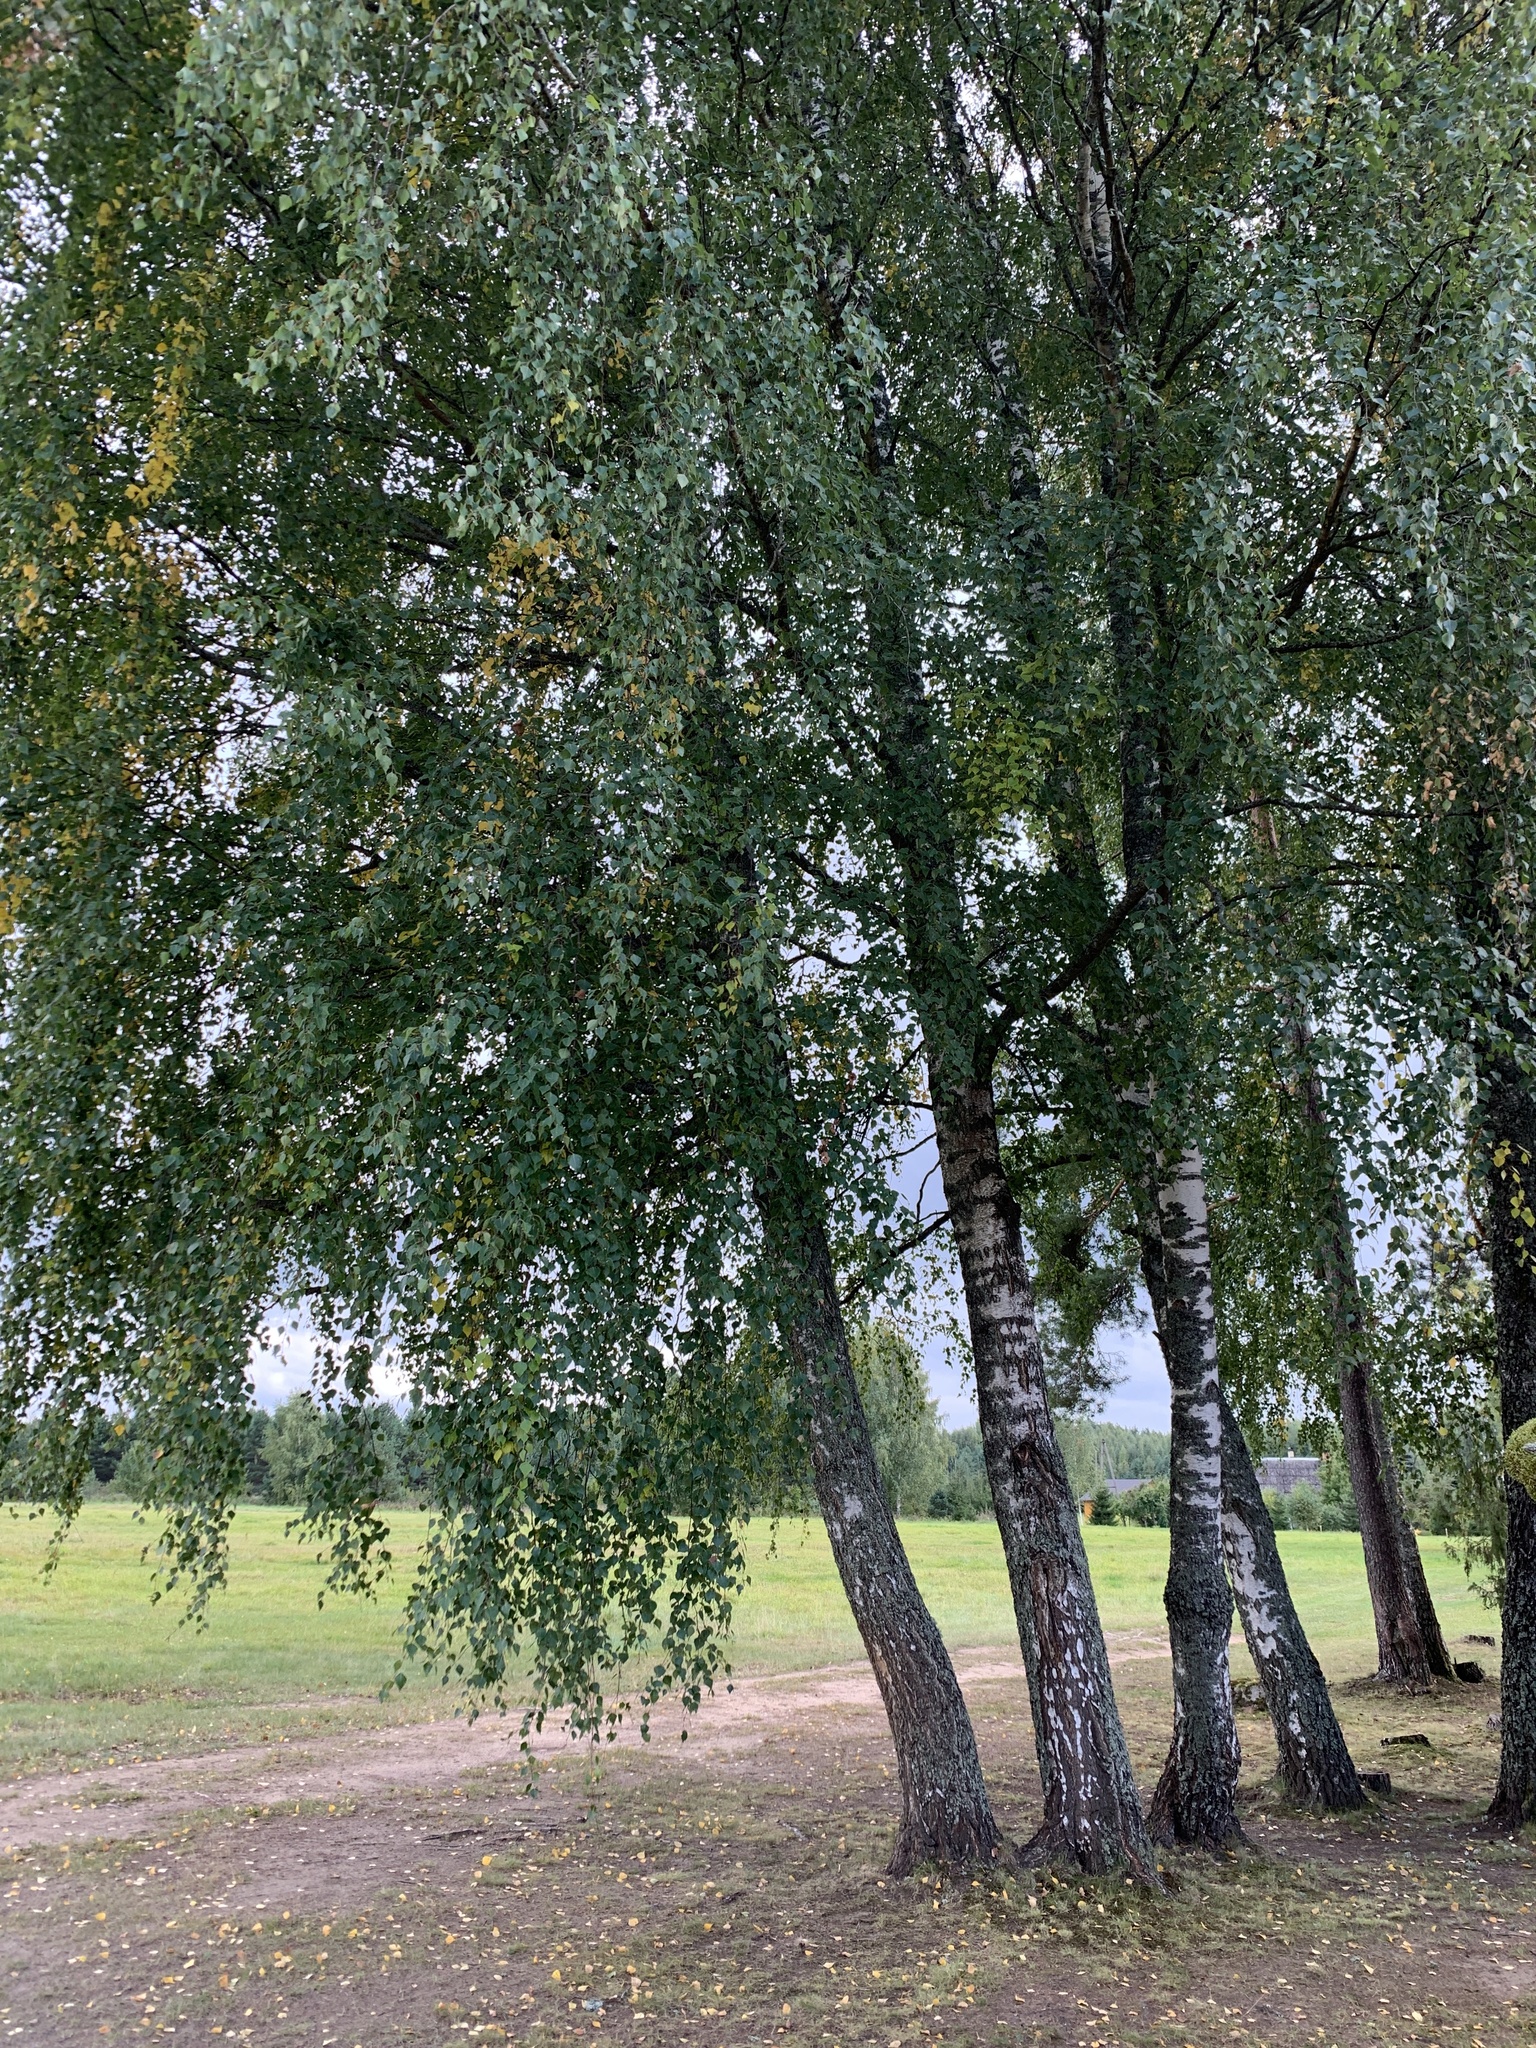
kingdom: Plantae
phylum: Tracheophyta
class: Magnoliopsida
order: Fagales
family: Betulaceae
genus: Betula
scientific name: Betula pendula
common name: Silver birch
